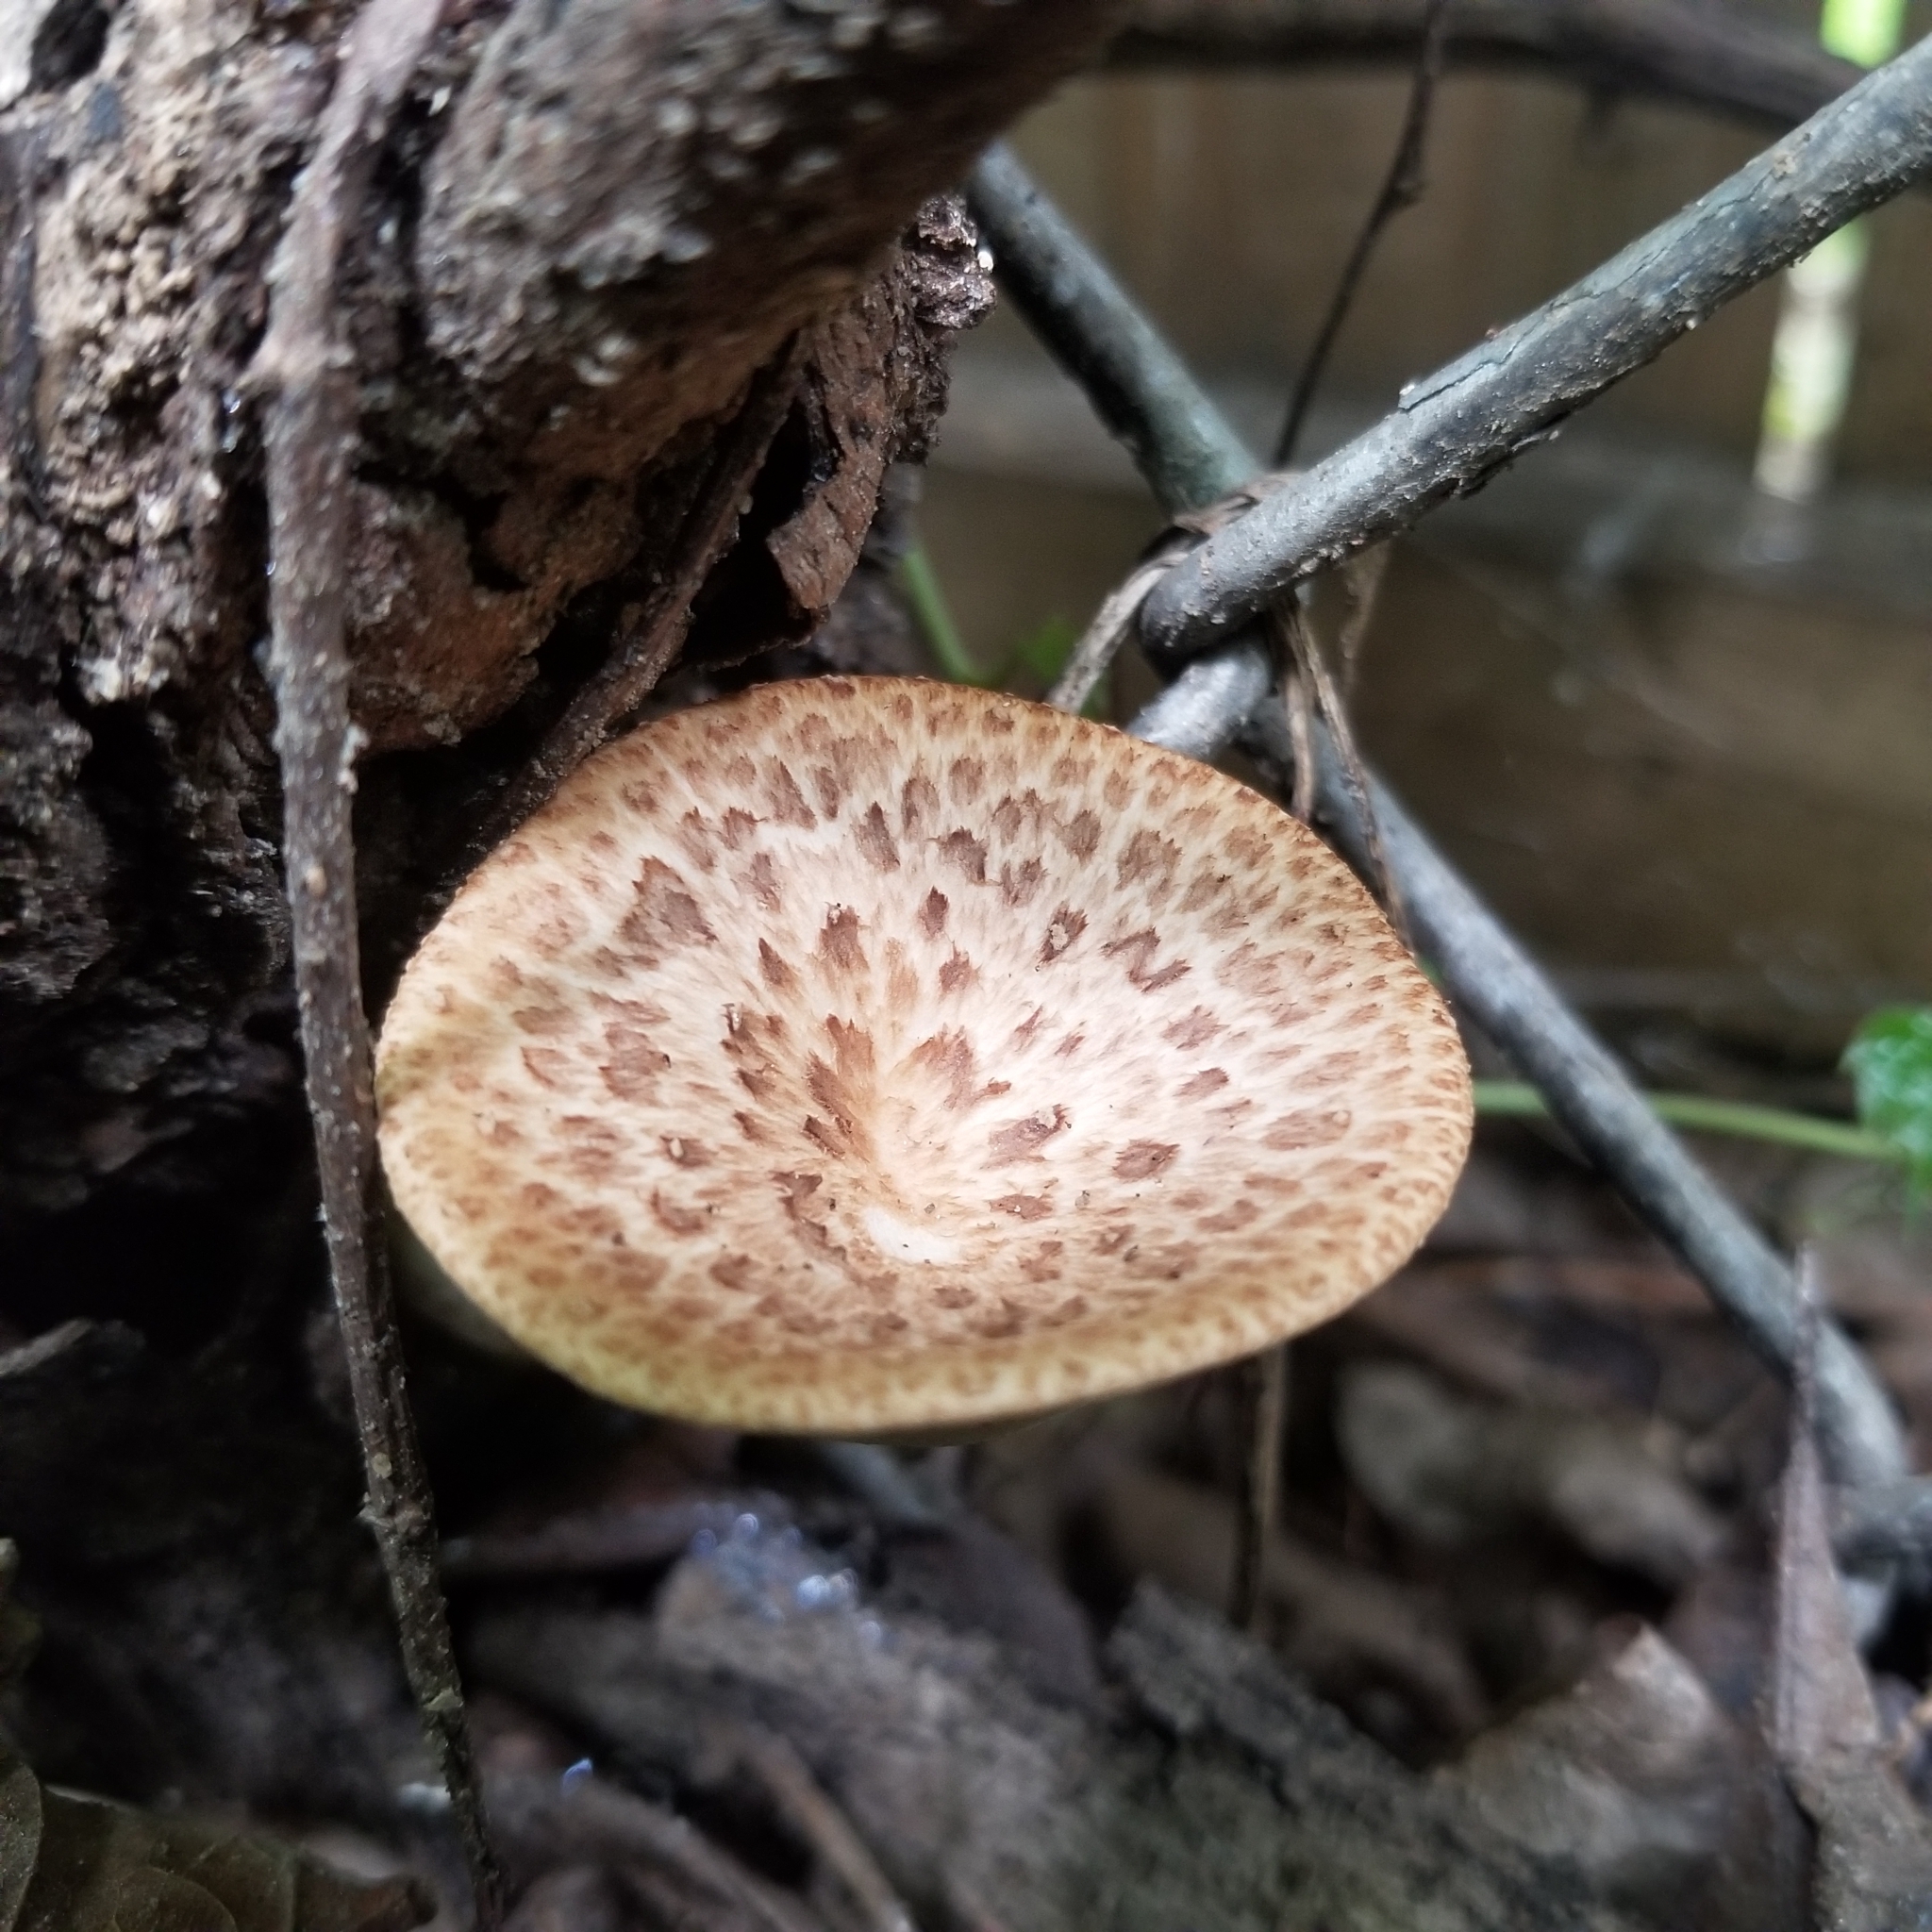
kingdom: Fungi
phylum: Basidiomycota
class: Agaricomycetes
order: Polyporales
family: Polyporaceae
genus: Cerioporus
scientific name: Cerioporus squamosus
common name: Dryad's saddle
